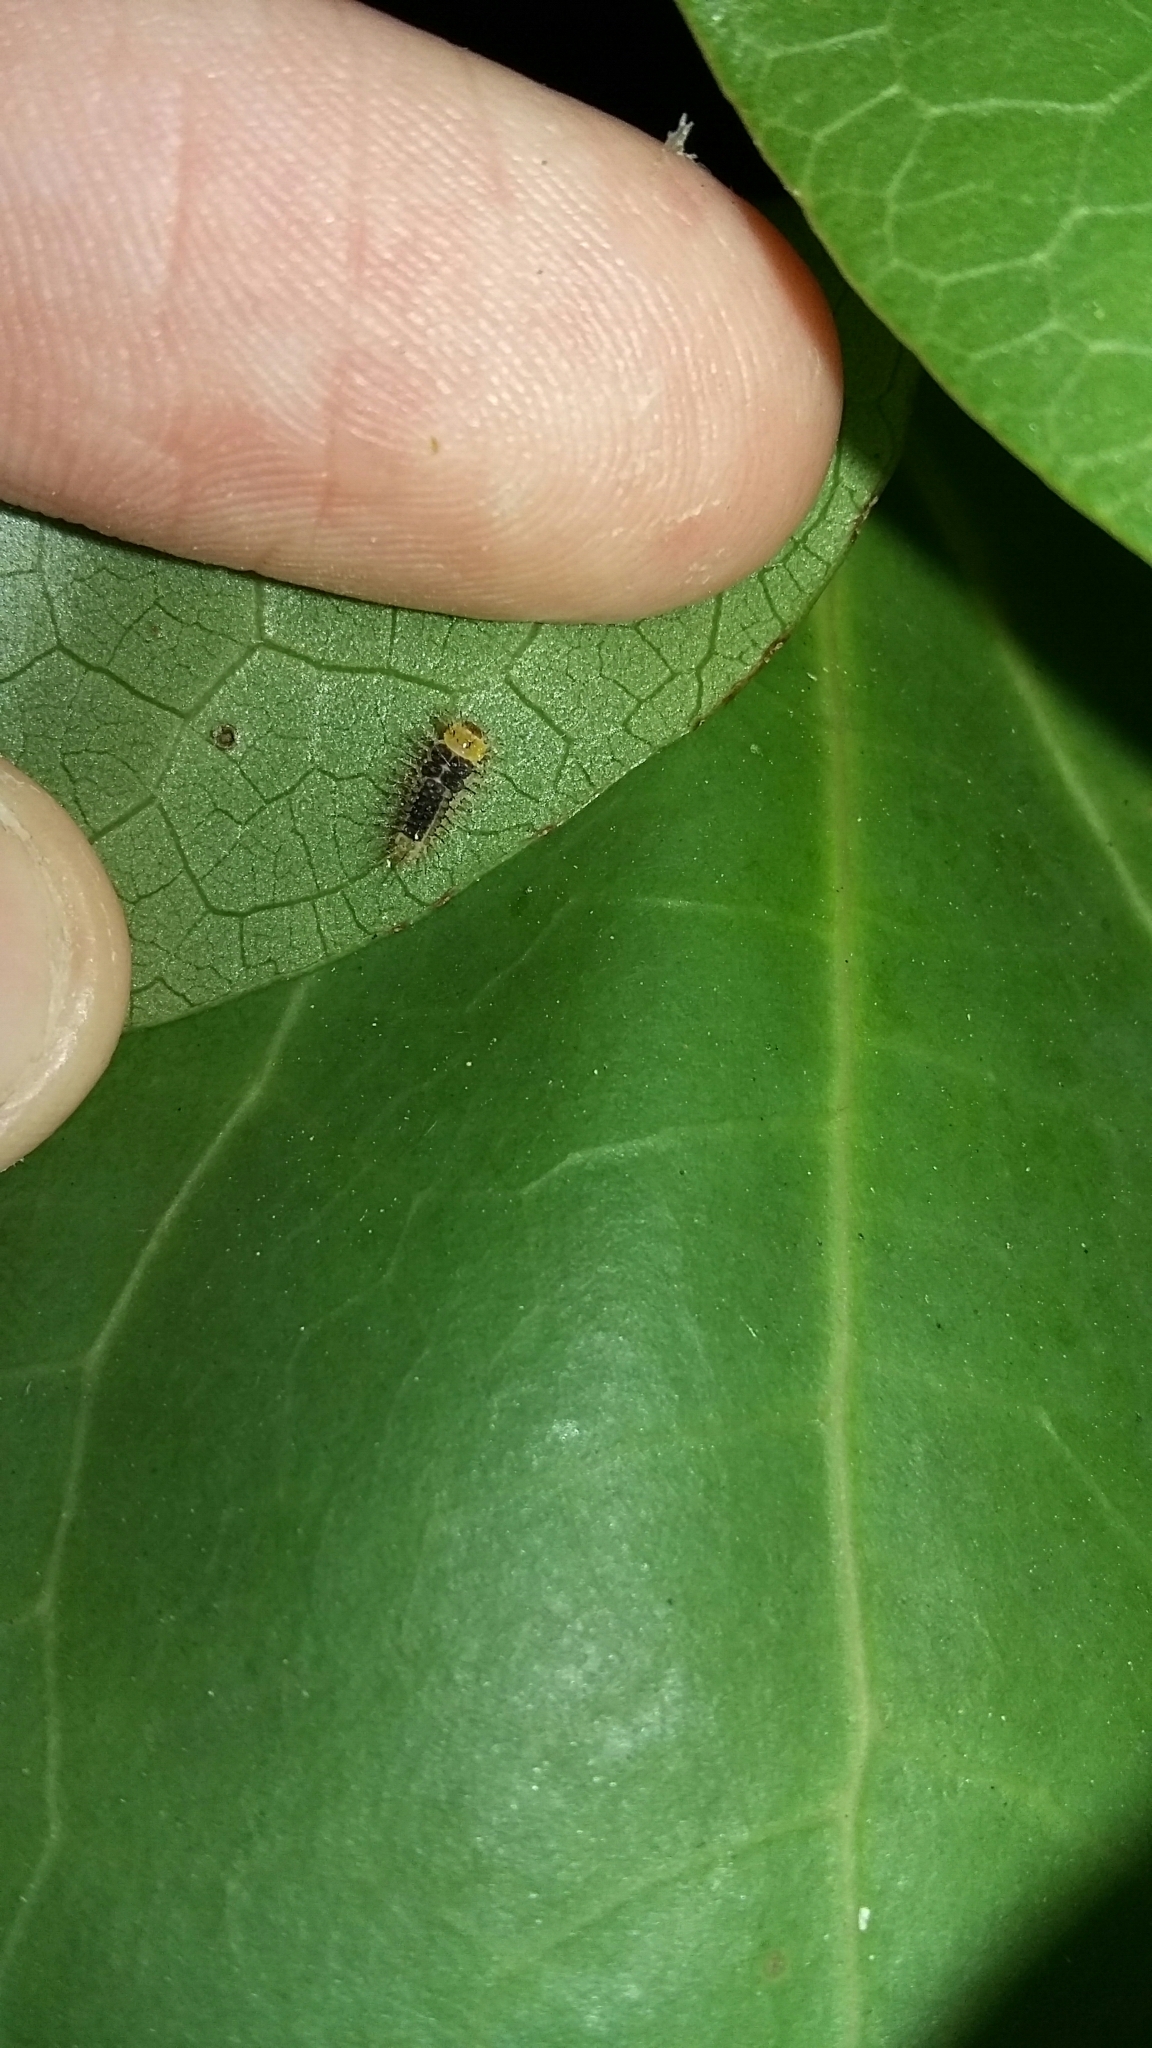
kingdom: Animalia
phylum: Arthropoda
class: Insecta
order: Coleoptera
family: Coccinellidae
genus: Halmus
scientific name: Halmus chalybeus
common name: Steel blue ladybird beetle
